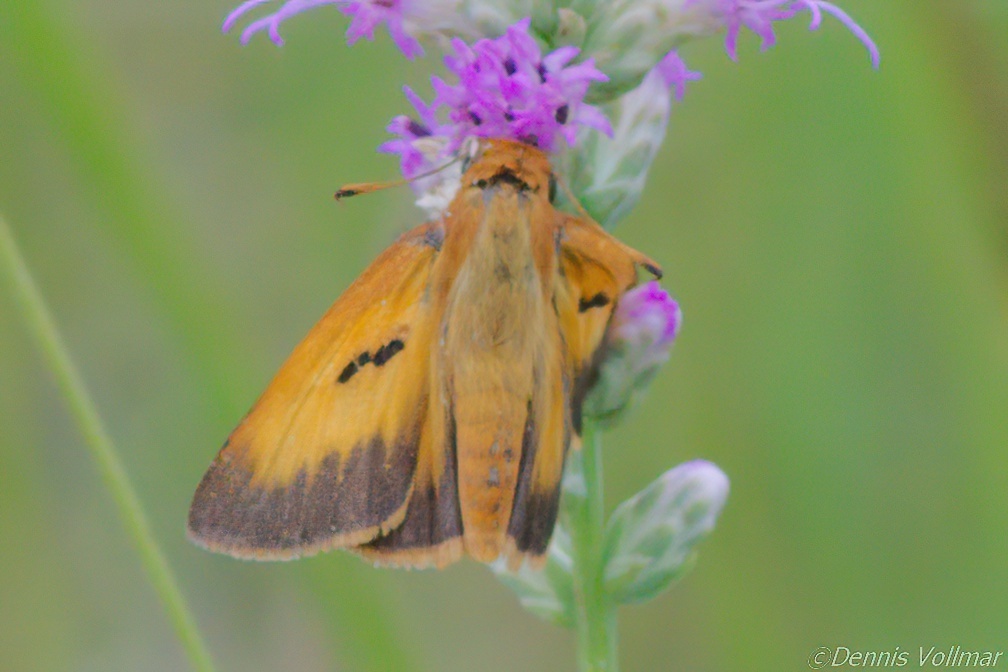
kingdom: Animalia
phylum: Arthropoda
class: Insecta
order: Lepidoptera
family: Hesperiidae
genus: Euphyes
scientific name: Euphyes pilatka
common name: Palatka skipper
